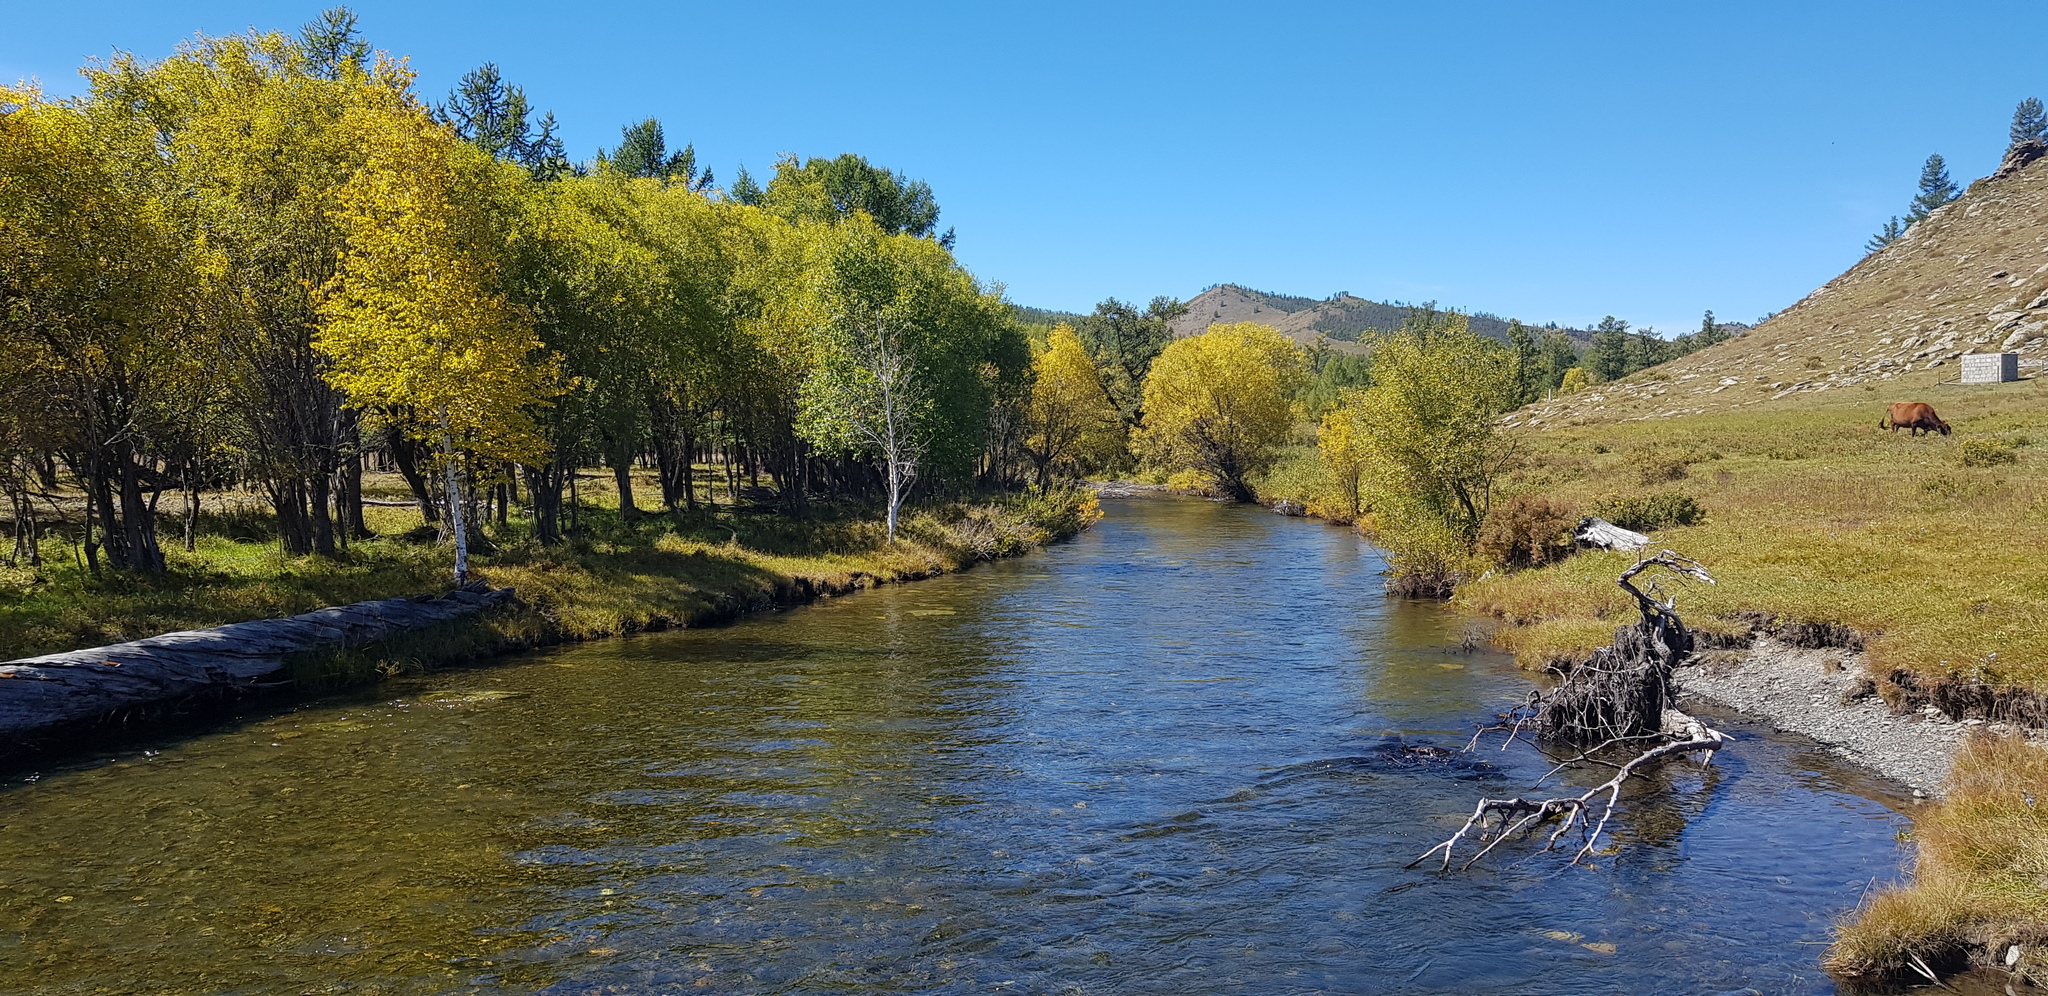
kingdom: Plantae
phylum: Tracheophyta
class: Magnoliopsida
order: Fagales
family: Betulaceae
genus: Betula
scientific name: Betula pendula
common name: Silver birch
